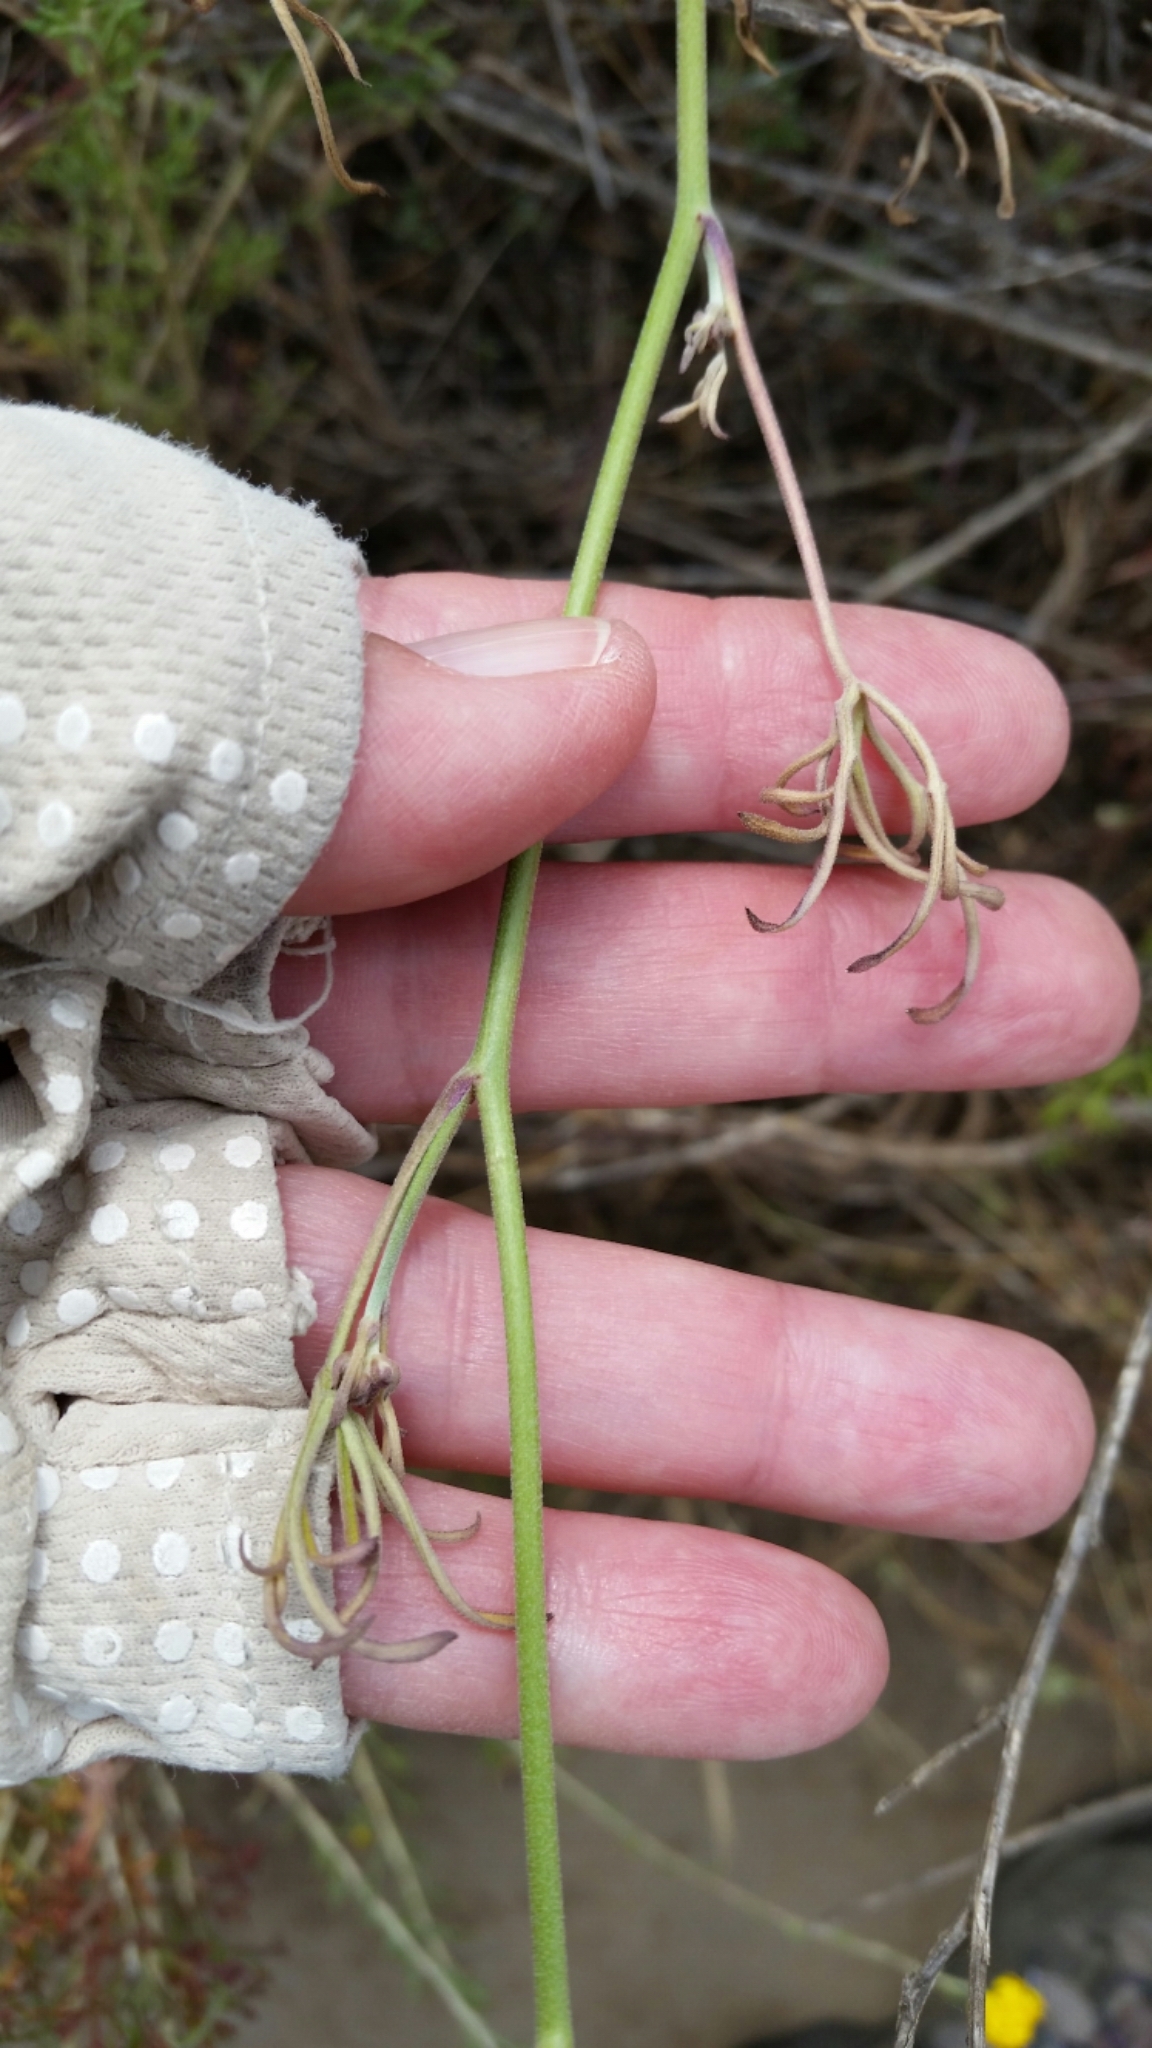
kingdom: Plantae
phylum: Tracheophyta
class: Magnoliopsida
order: Ranunculales
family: Ranunculaceae
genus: Delphinium
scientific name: Delphinium parryi
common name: Parry's larkspur
